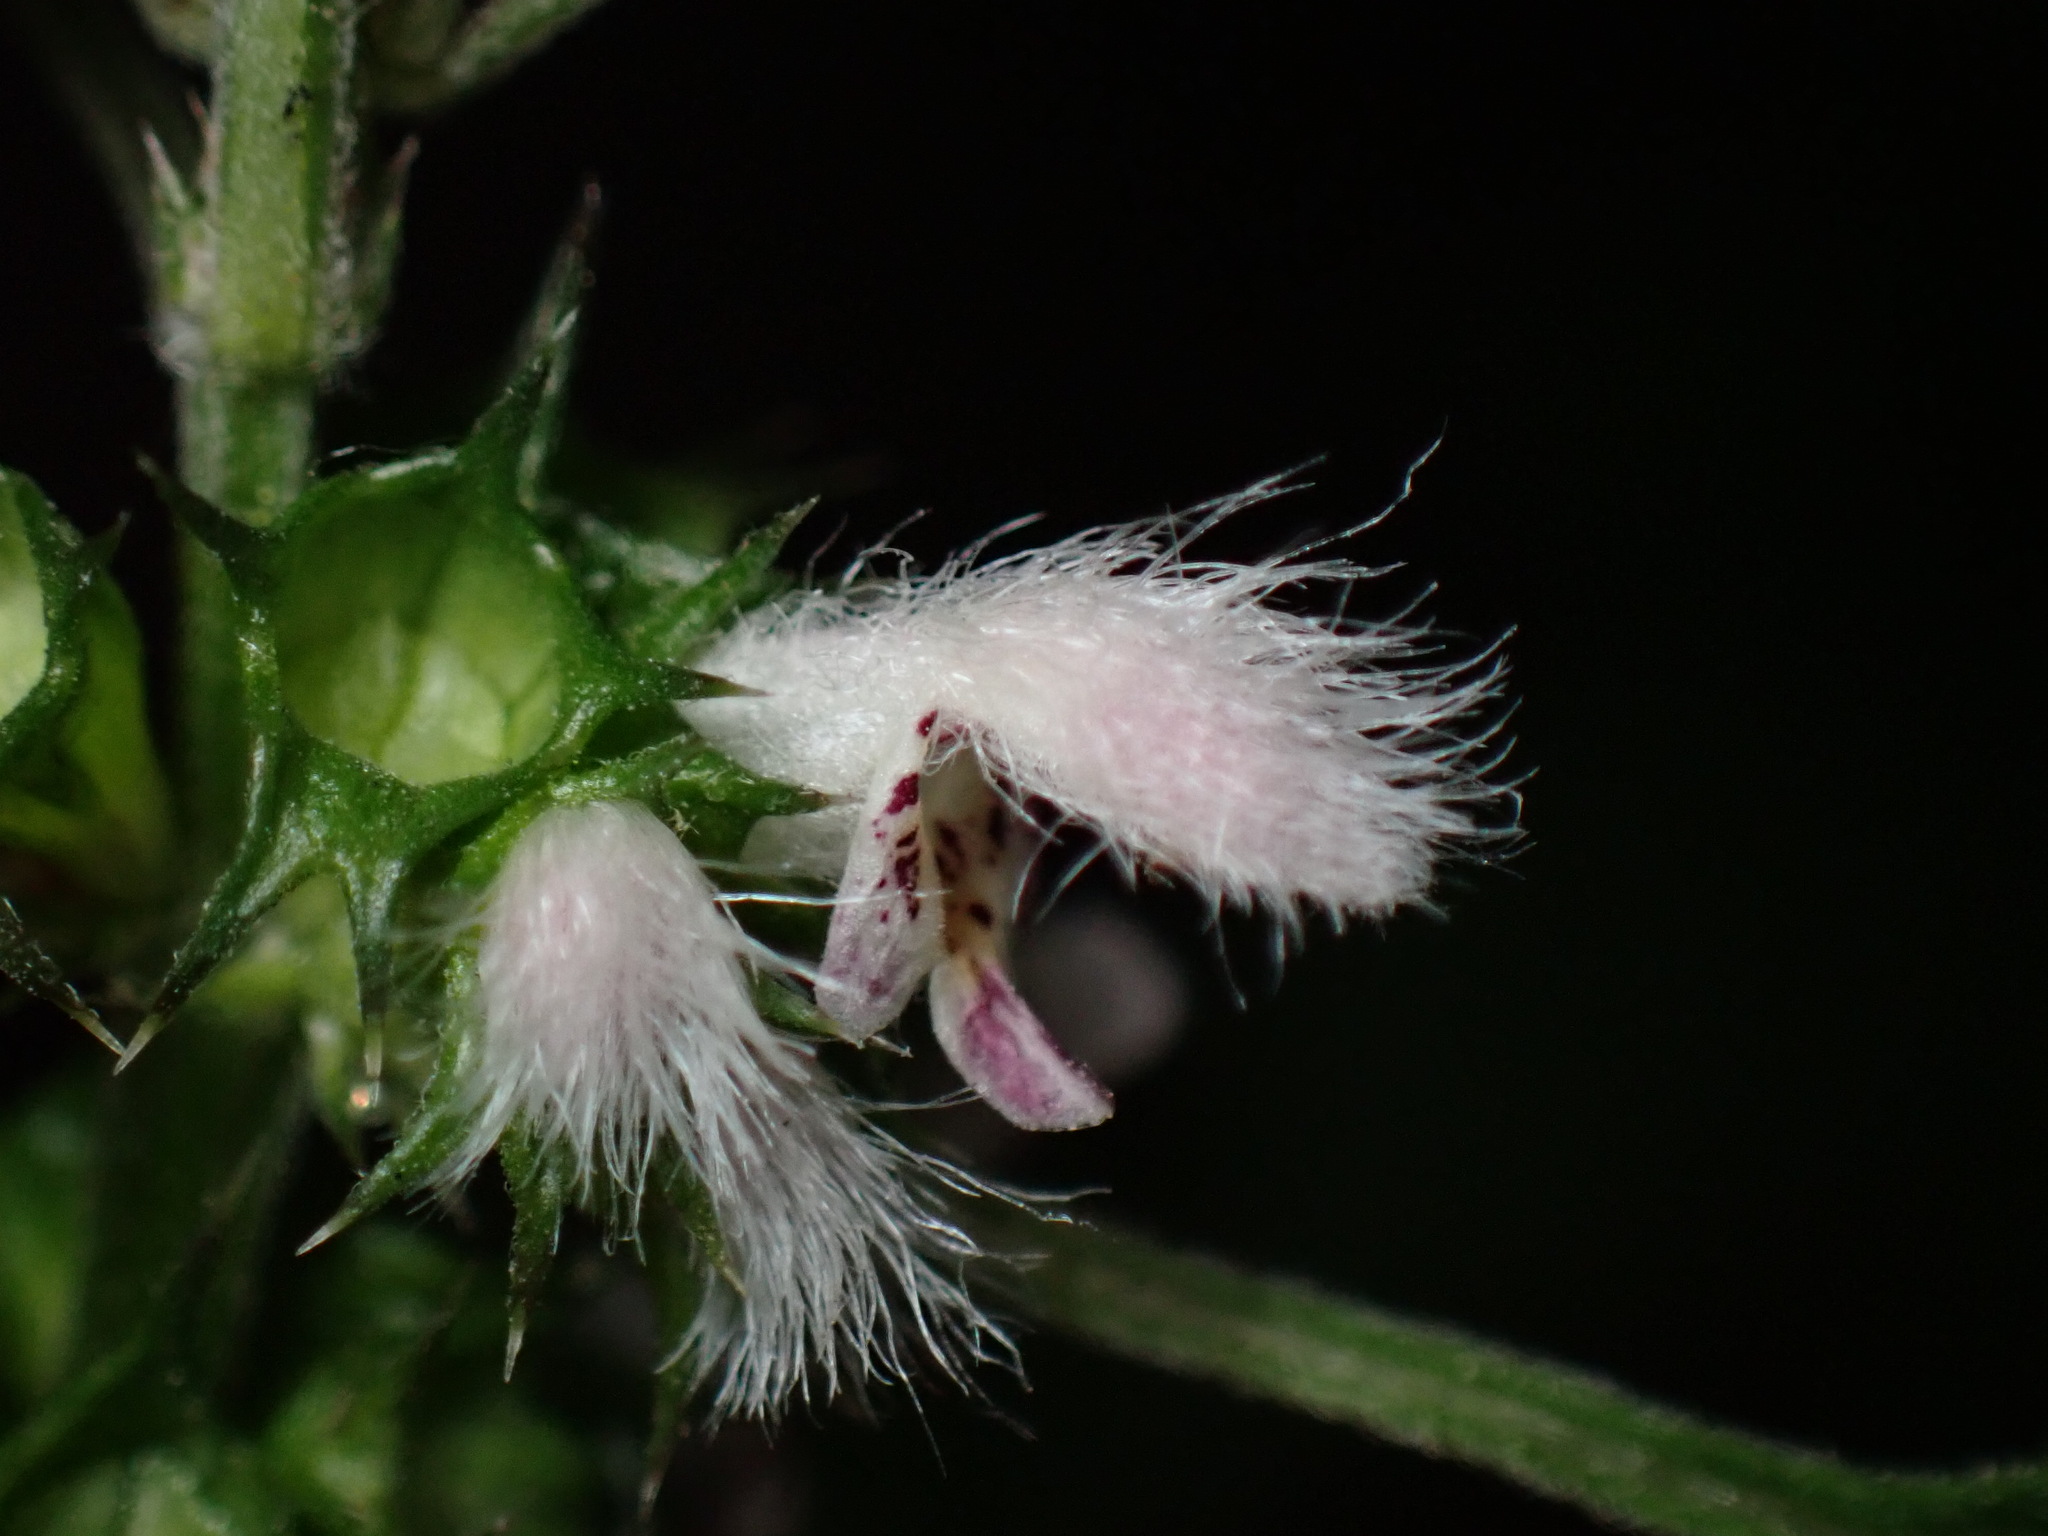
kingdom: Plantae
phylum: Tracheophyta
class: Magnoliopsida
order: Lamiales
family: Lamiaceae
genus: Leonurus
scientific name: Leonurus cardiaca
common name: Motherwort
